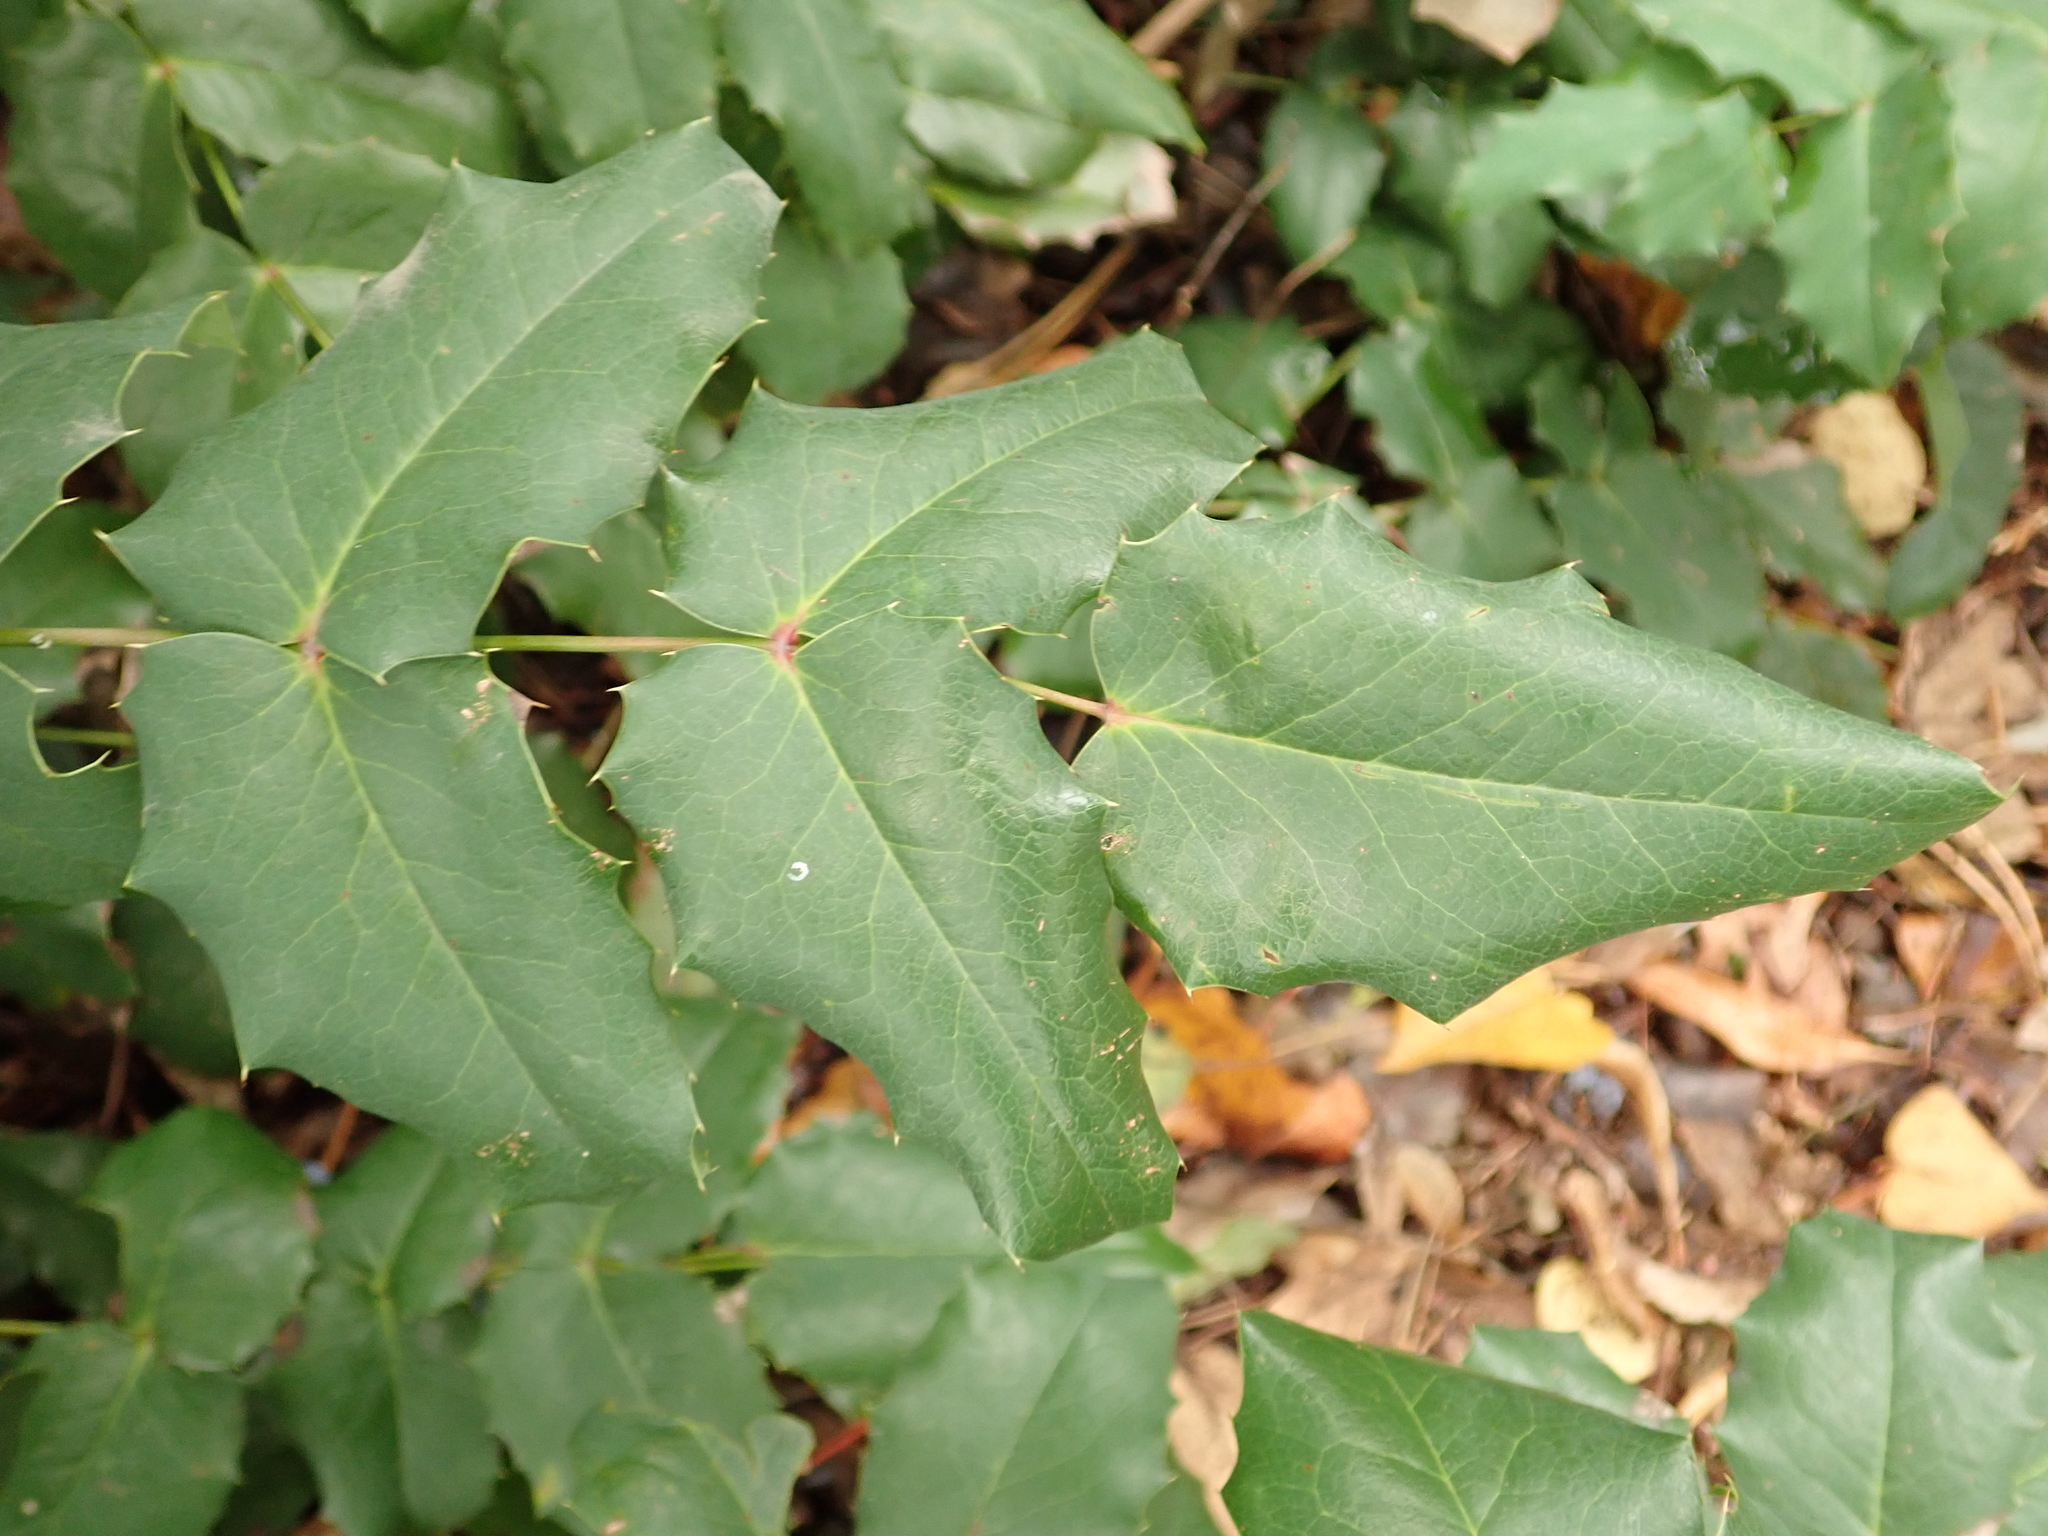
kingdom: Plantae
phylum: Tracheophyta
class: Magnoliopsida
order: Ranunculales
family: Berberidaceae
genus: Mahonia
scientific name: Mahonia aquifolium
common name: Oregon-grape
